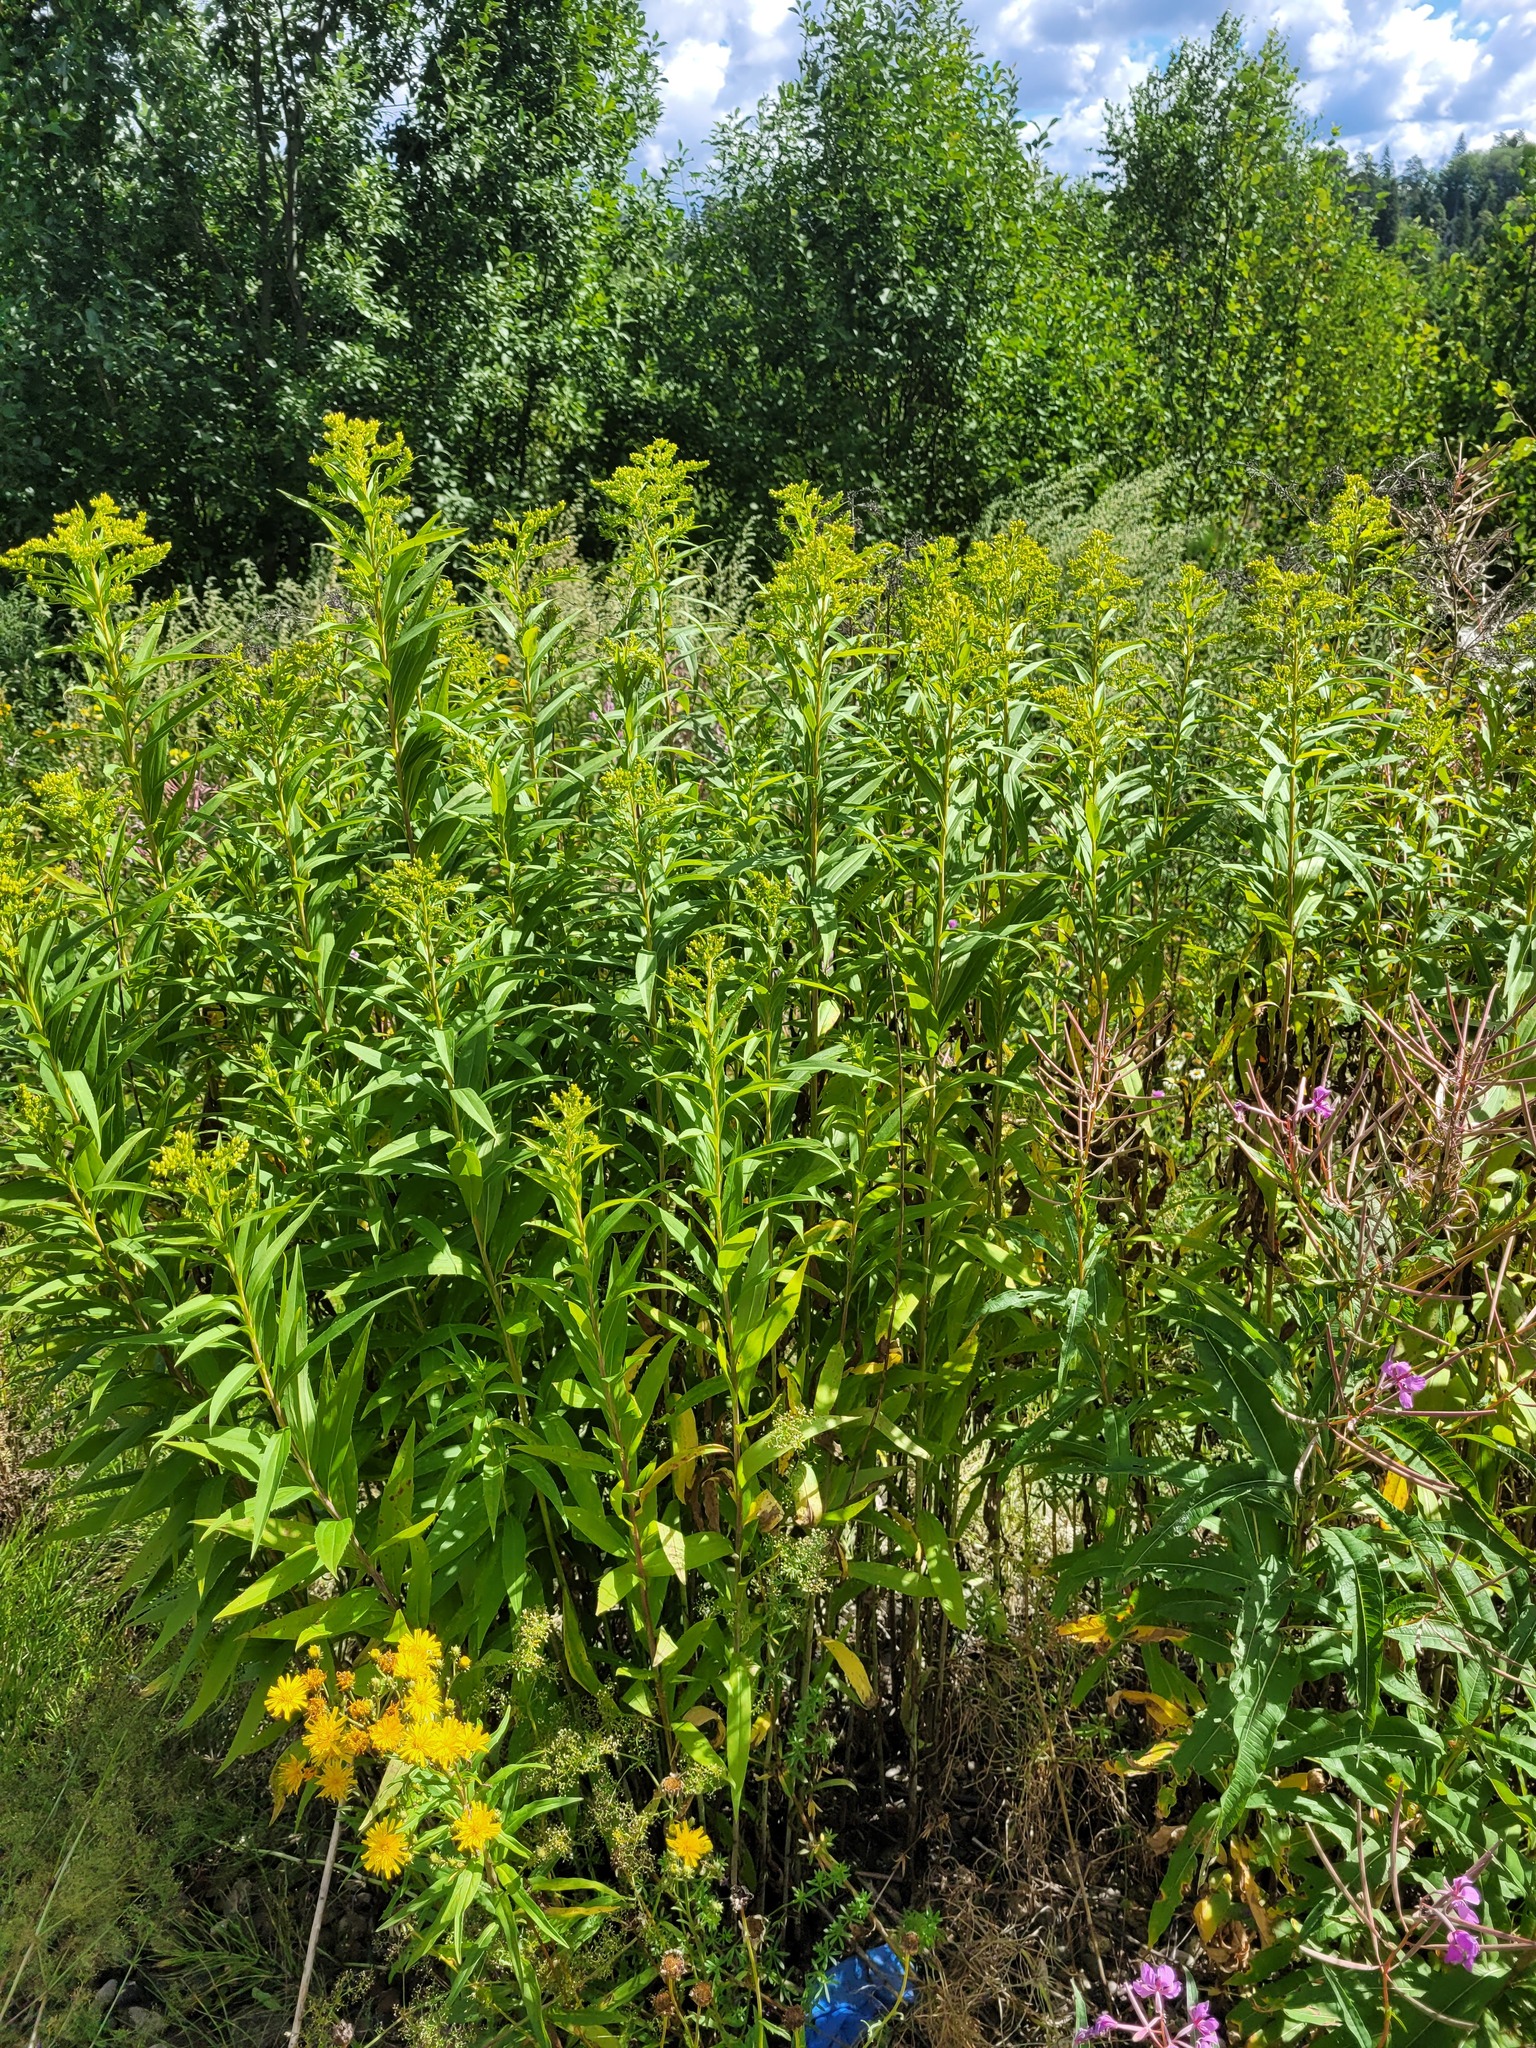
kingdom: Plantae
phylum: Tracheophyta
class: Magnoliopsida
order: Asterales
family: Asteraceae
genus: Solidago
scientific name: Solidago gigantea
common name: Giant goldenrod
